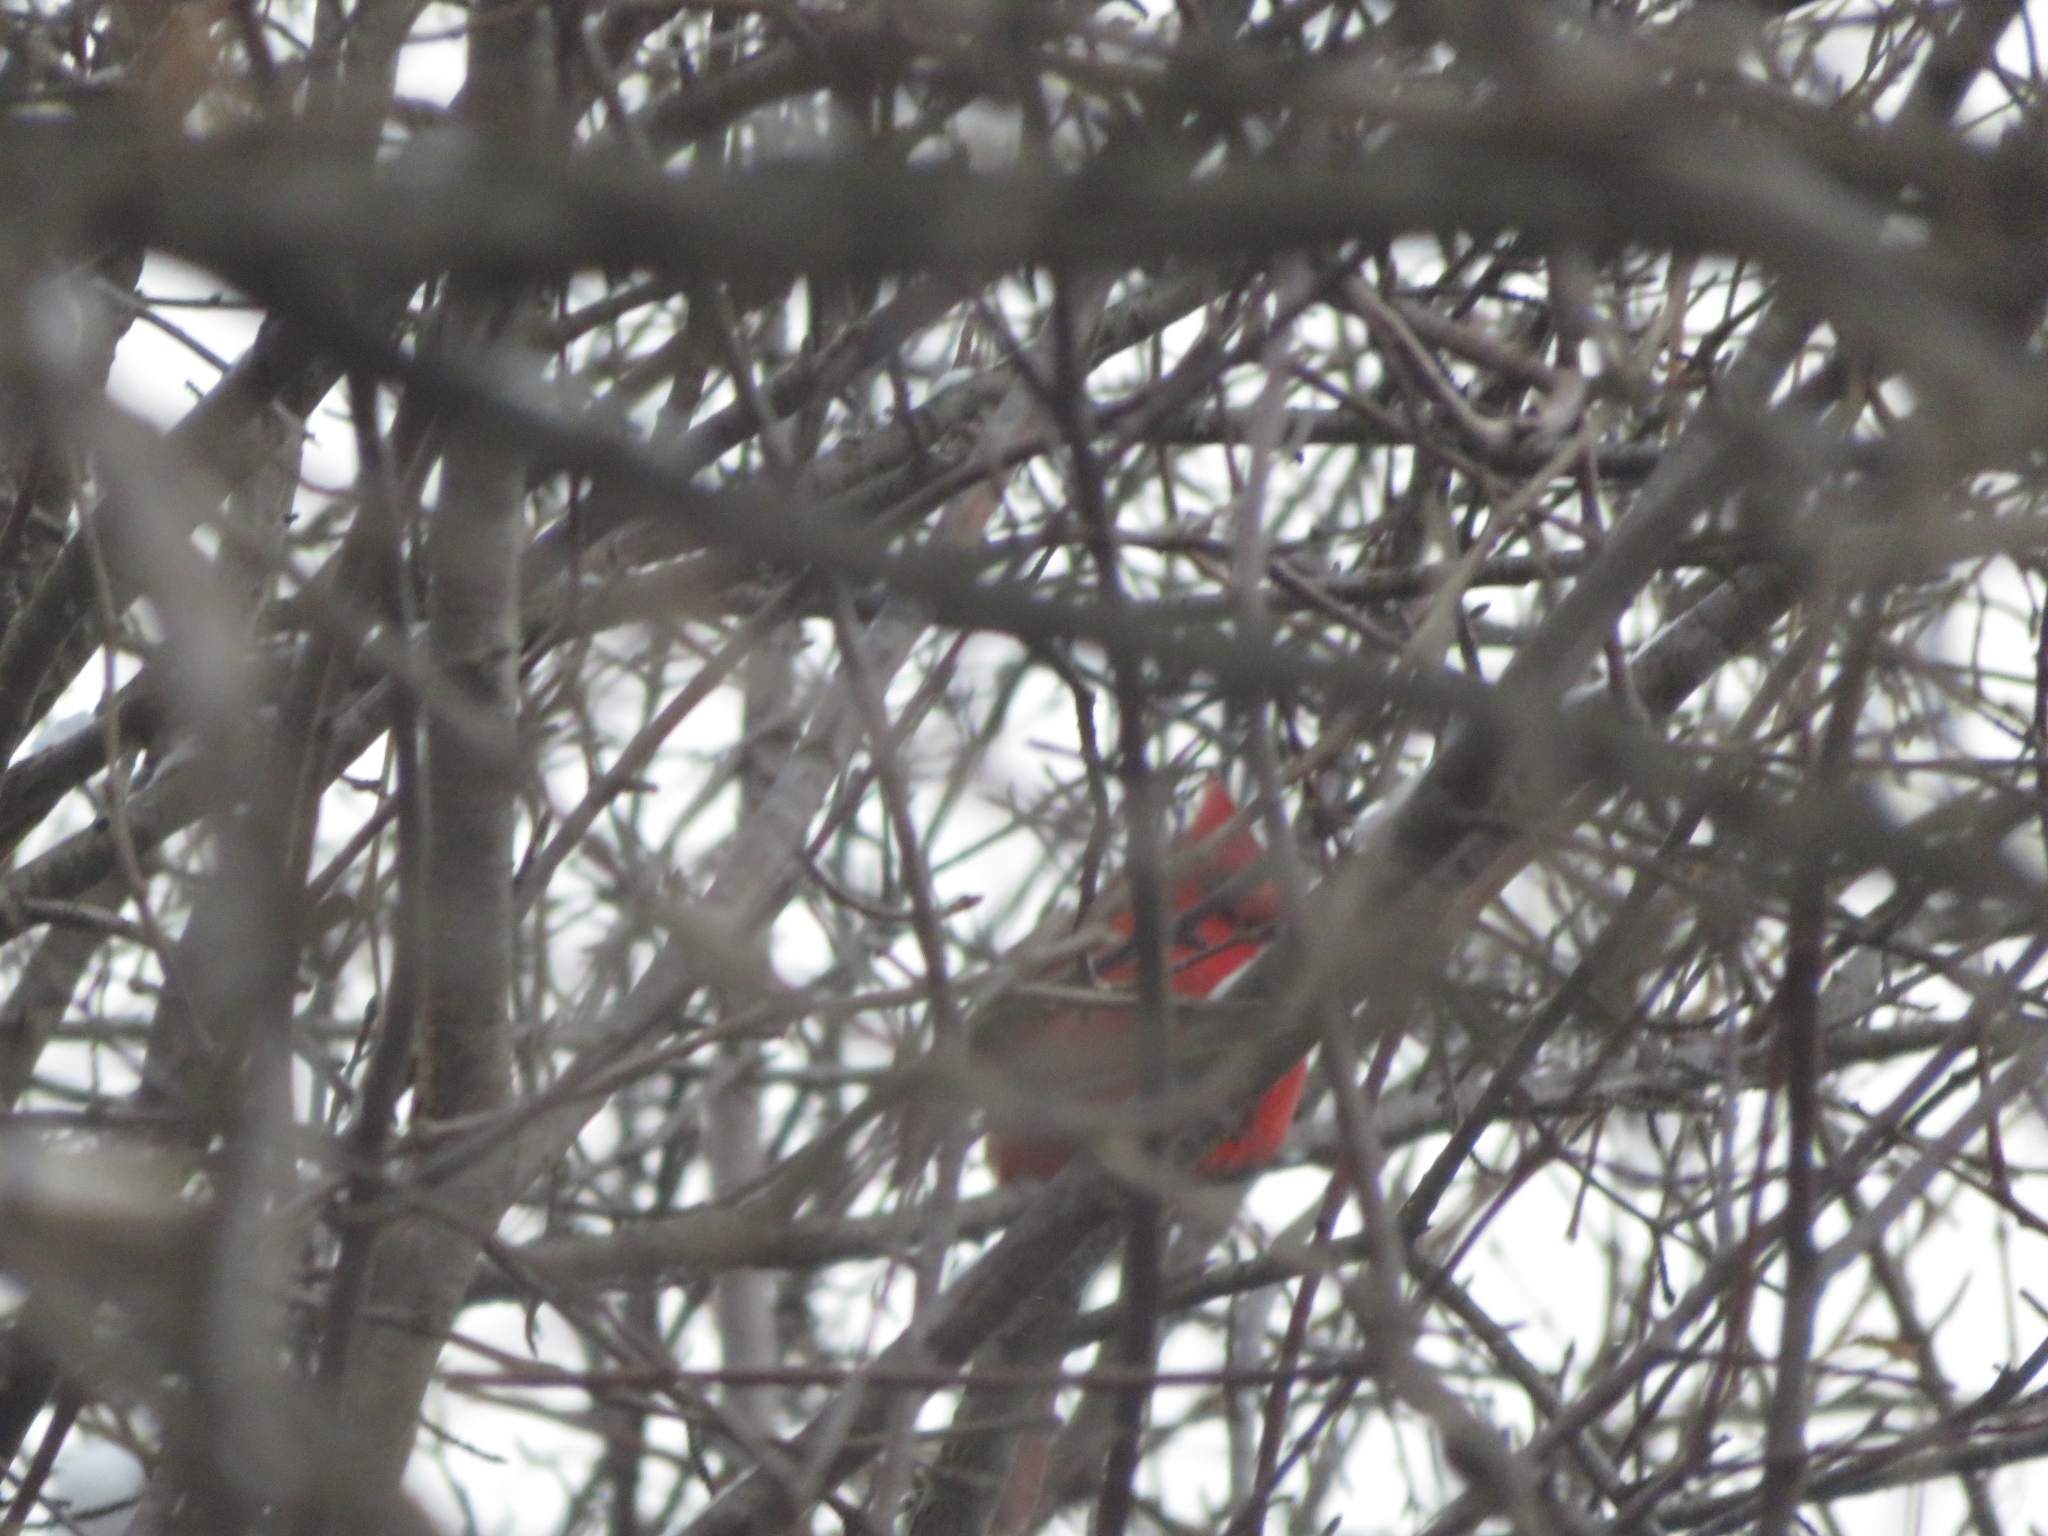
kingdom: Animalia
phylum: Chordata
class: Aves
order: Passeriformes
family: Cardinalidae
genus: Cardinalis
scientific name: Cardinalis cardinalis
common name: Northern cardinal
